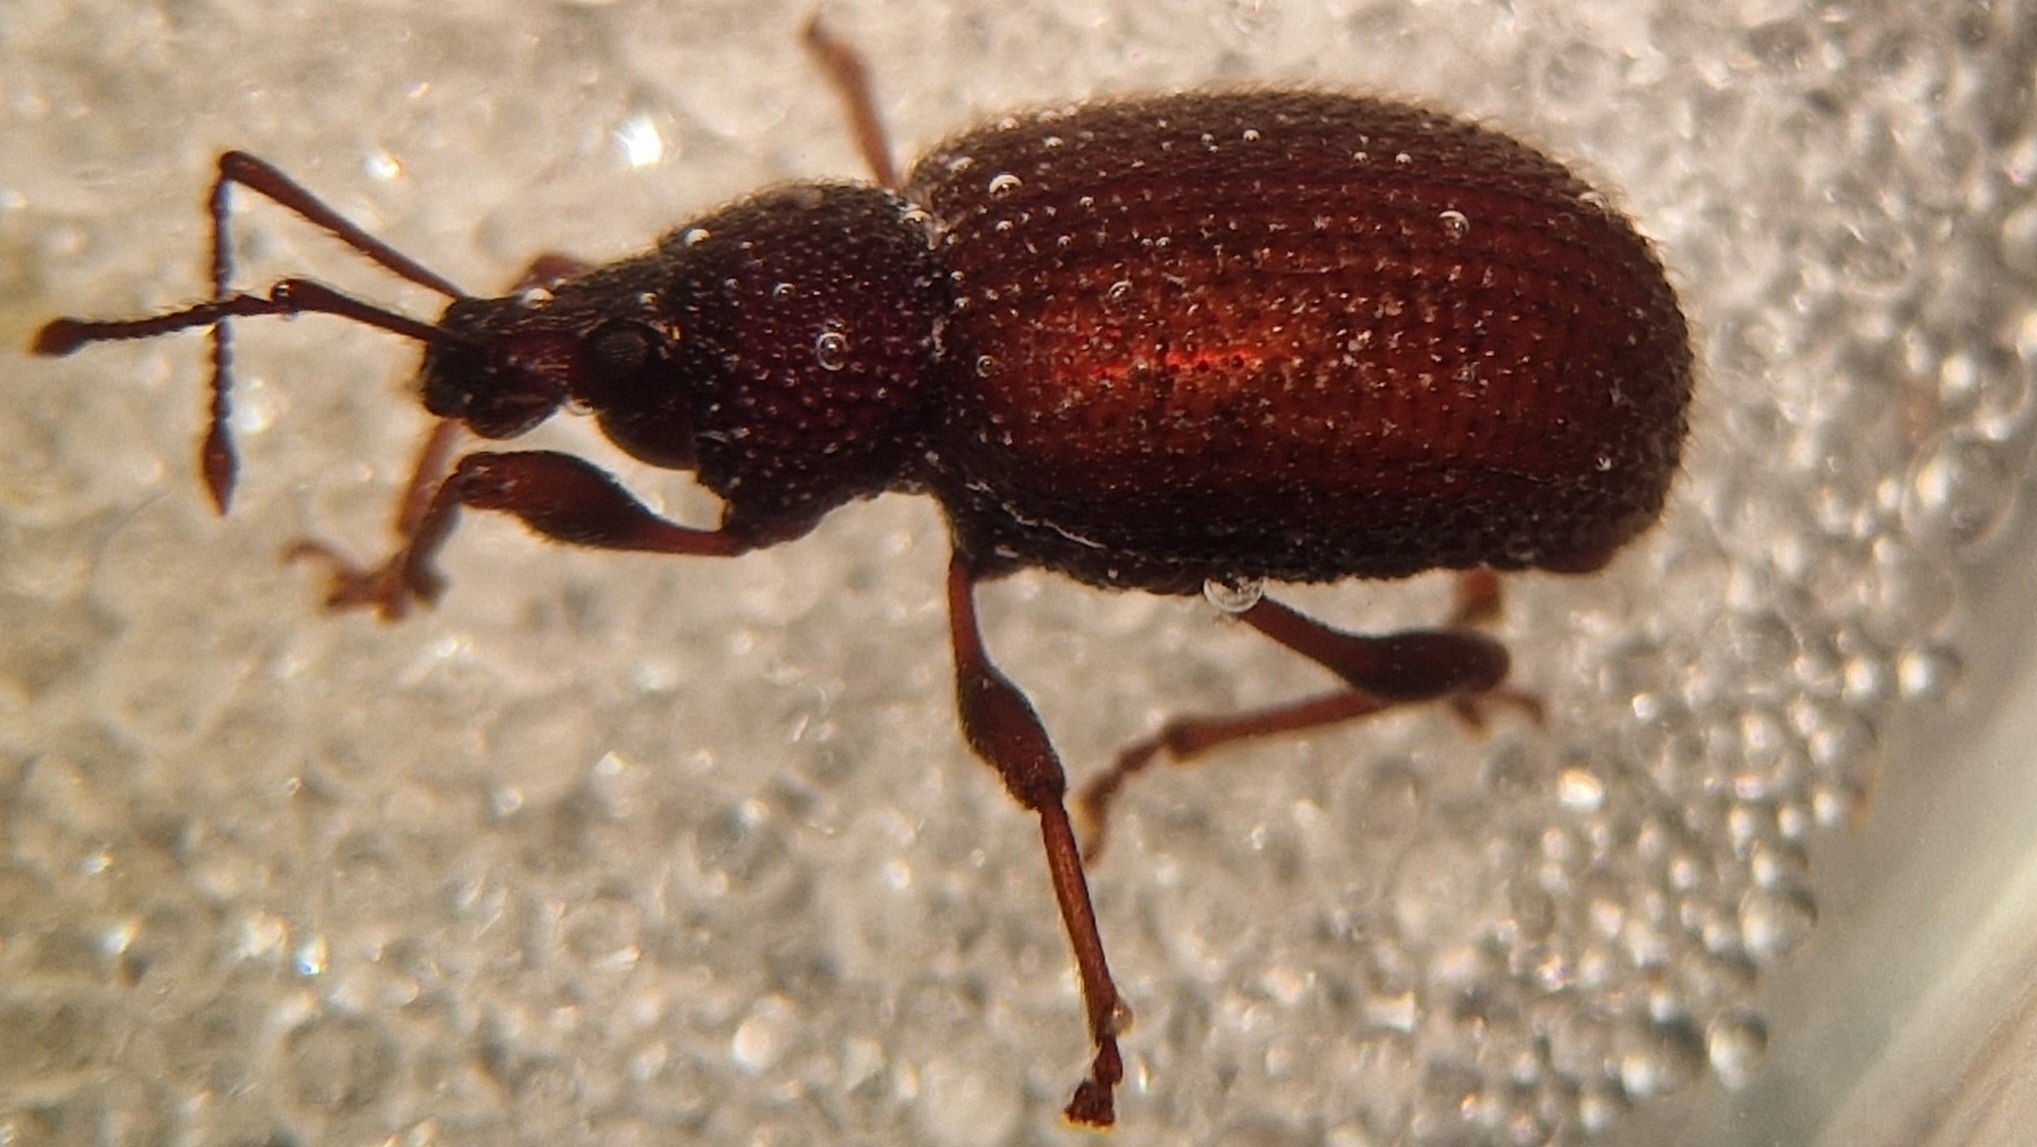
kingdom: Animalia
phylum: Arthropoda
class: Insecta
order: Coleoptera
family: Curculionidae
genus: Otiorhynchus
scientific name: Otiorhynchus rugosostriatus
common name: Weevil
